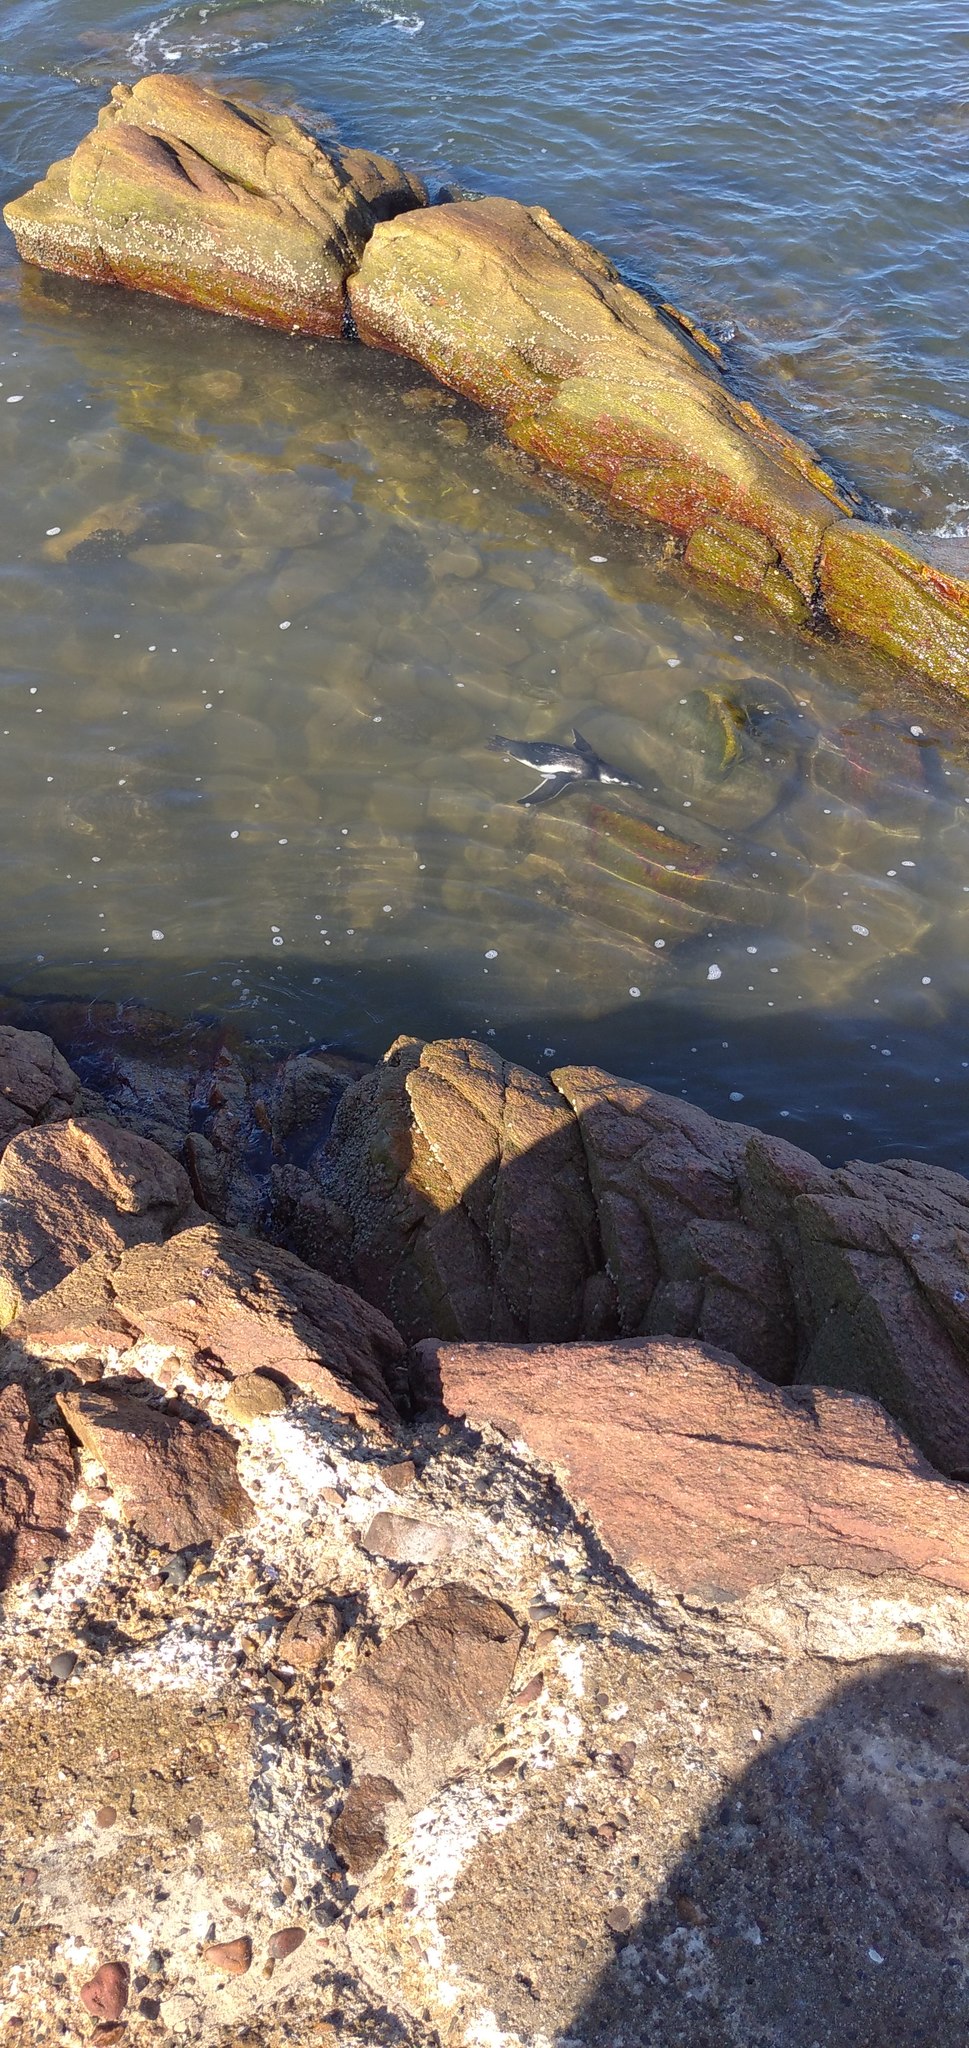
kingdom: Animalia
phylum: Chordata
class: Aves
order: Sphenisciformes
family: Spheniscidae
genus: Spheniscus
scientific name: Spheniscus magellanicus
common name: Magellanic penguin
